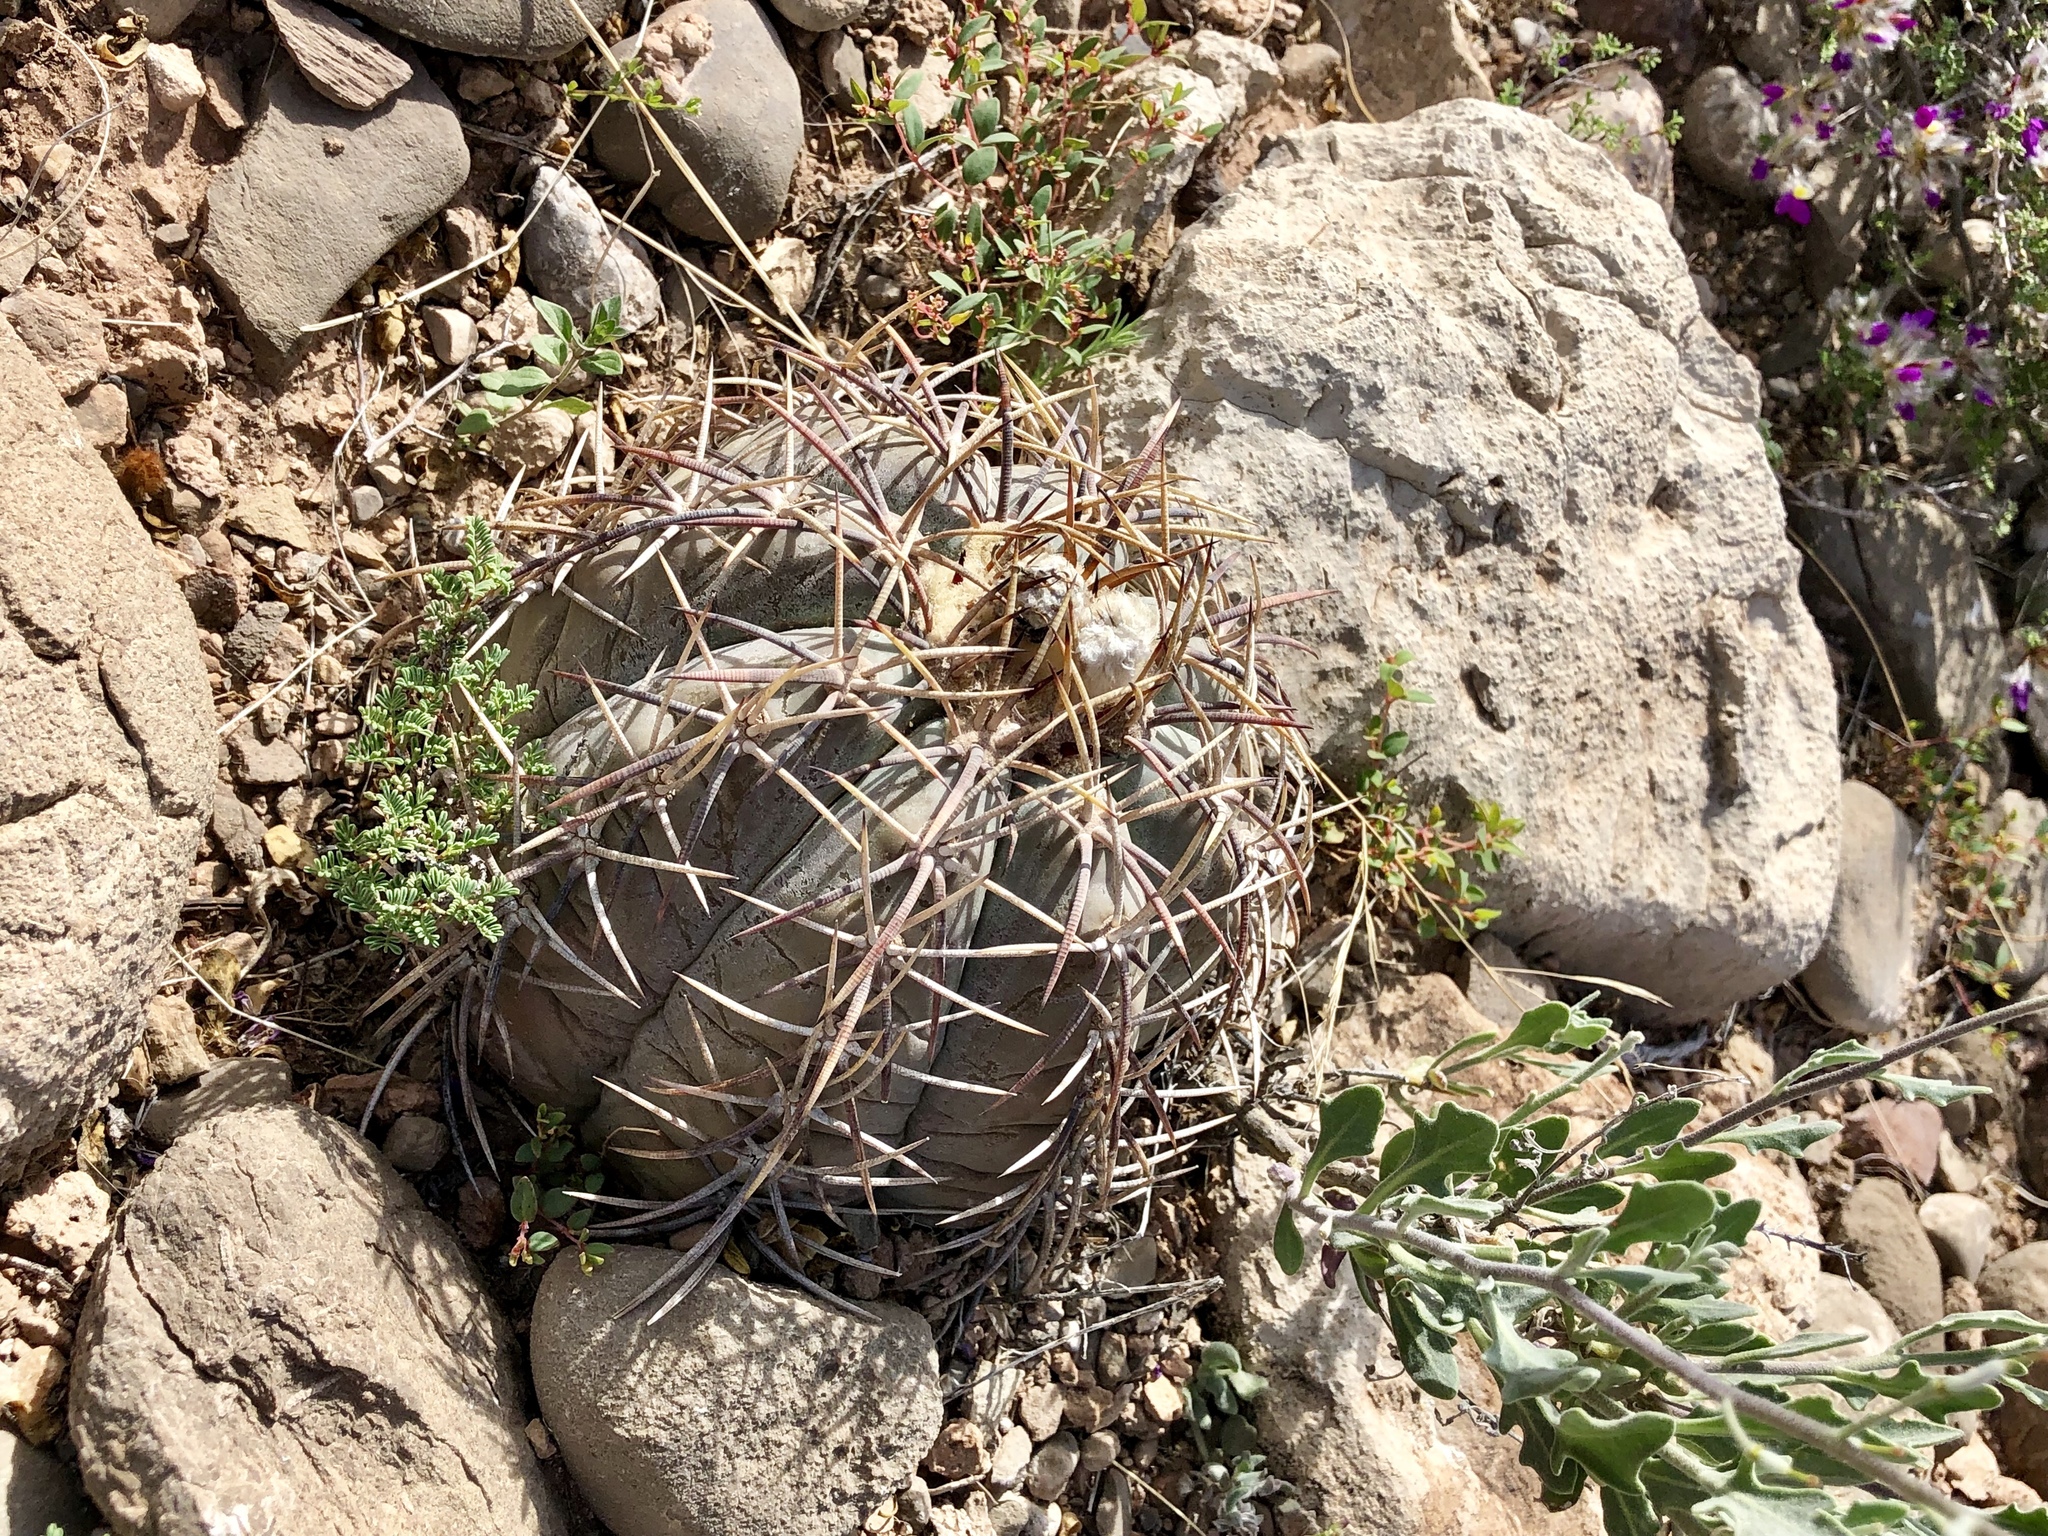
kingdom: Plantae
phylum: Tracheophyta
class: Magnoliopsida
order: Caryophyllales
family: Cactaceae
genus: Echinocactus
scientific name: Echinocactus horizonthalonius
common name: Devilshead
